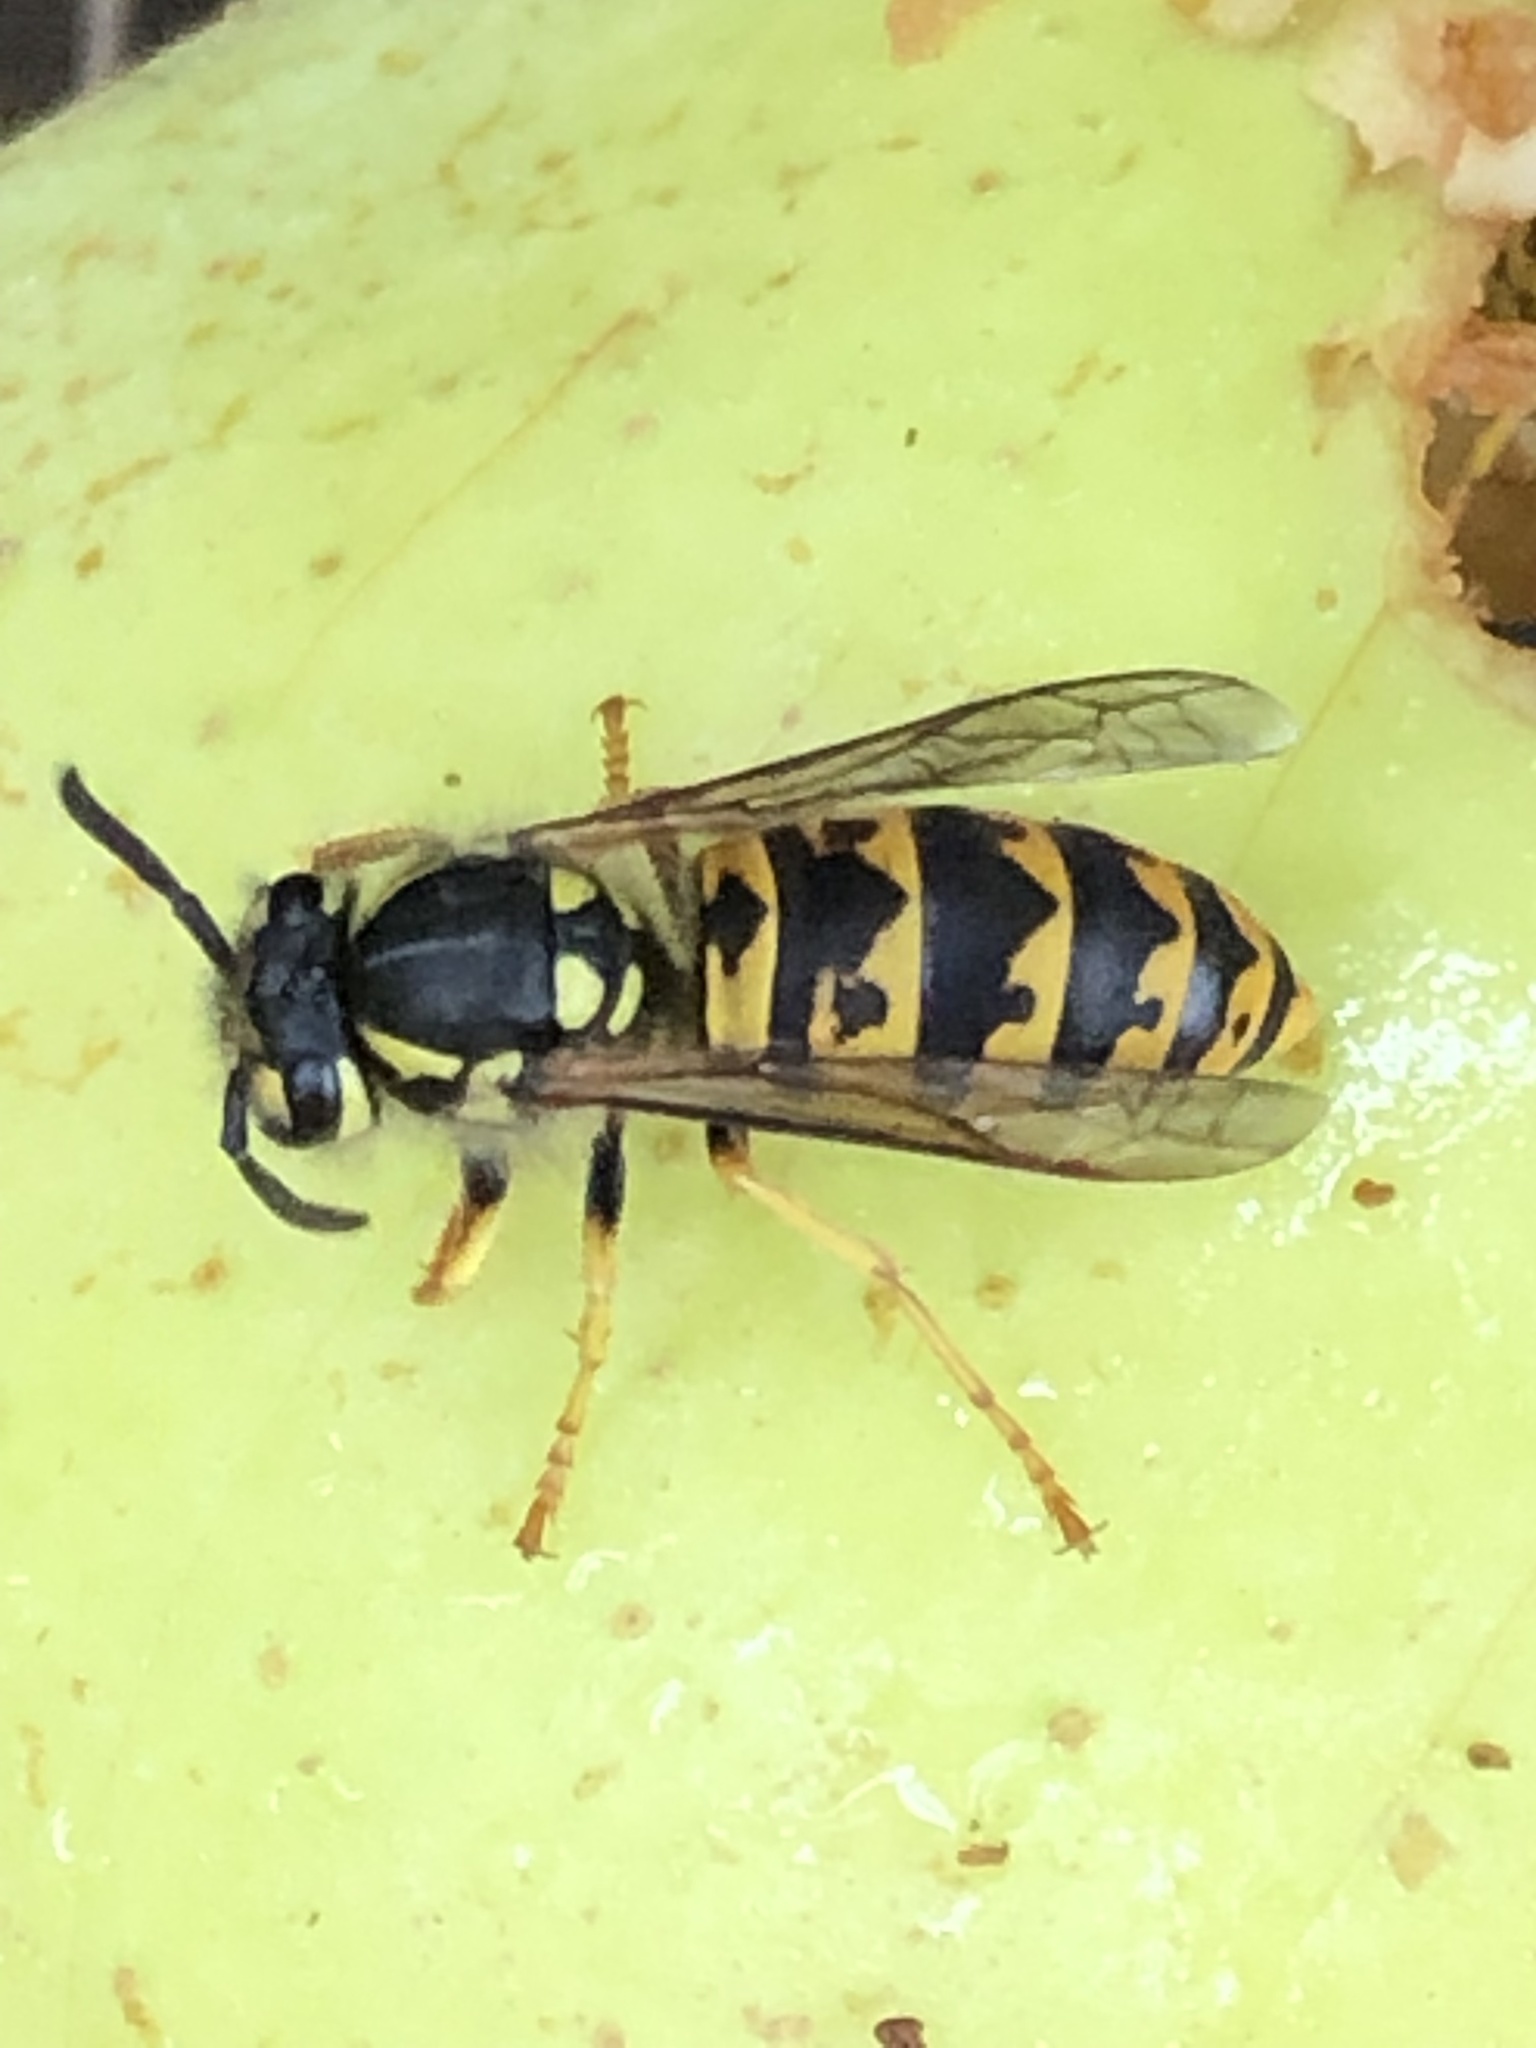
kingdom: Animalia
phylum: Arthropoda
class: Insecta
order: Hymenoptera
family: Vespidae
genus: Vespula
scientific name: Vespula germanica
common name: German wasp
